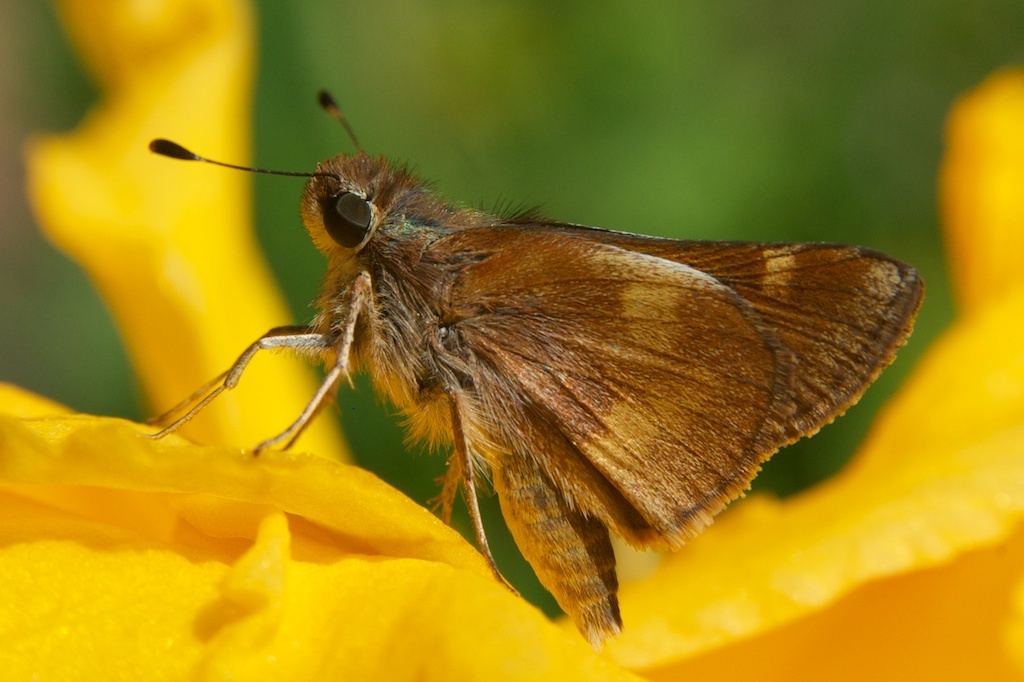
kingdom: Animalia
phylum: Arthropoda
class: Insecta
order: Lepidoptera
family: Hesperiidae
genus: Lon
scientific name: Lon melane
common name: Umber skipper
